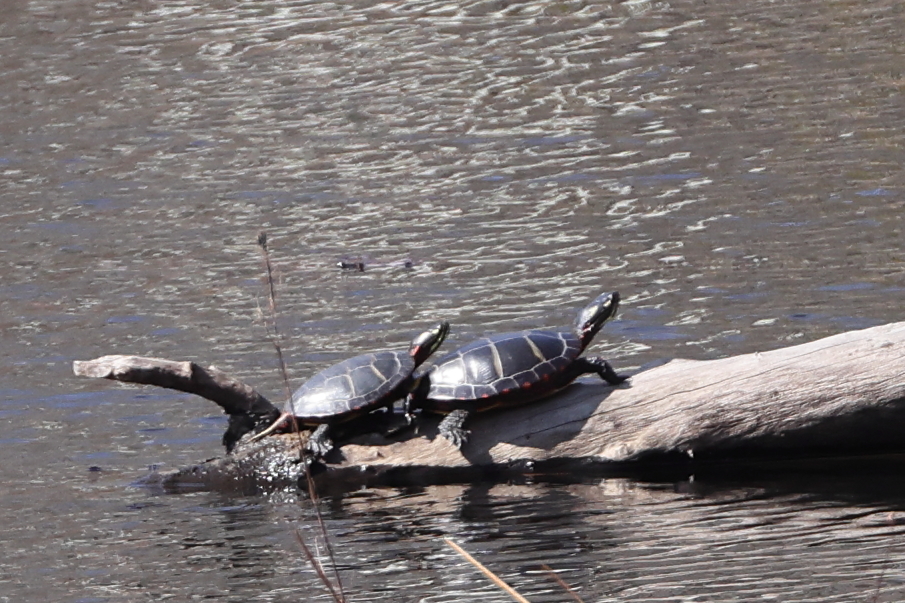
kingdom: Animalia
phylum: Chordata
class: Testudines
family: Emydidae
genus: Chrysemys
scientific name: Chrysemys picta
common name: Painted turtle
